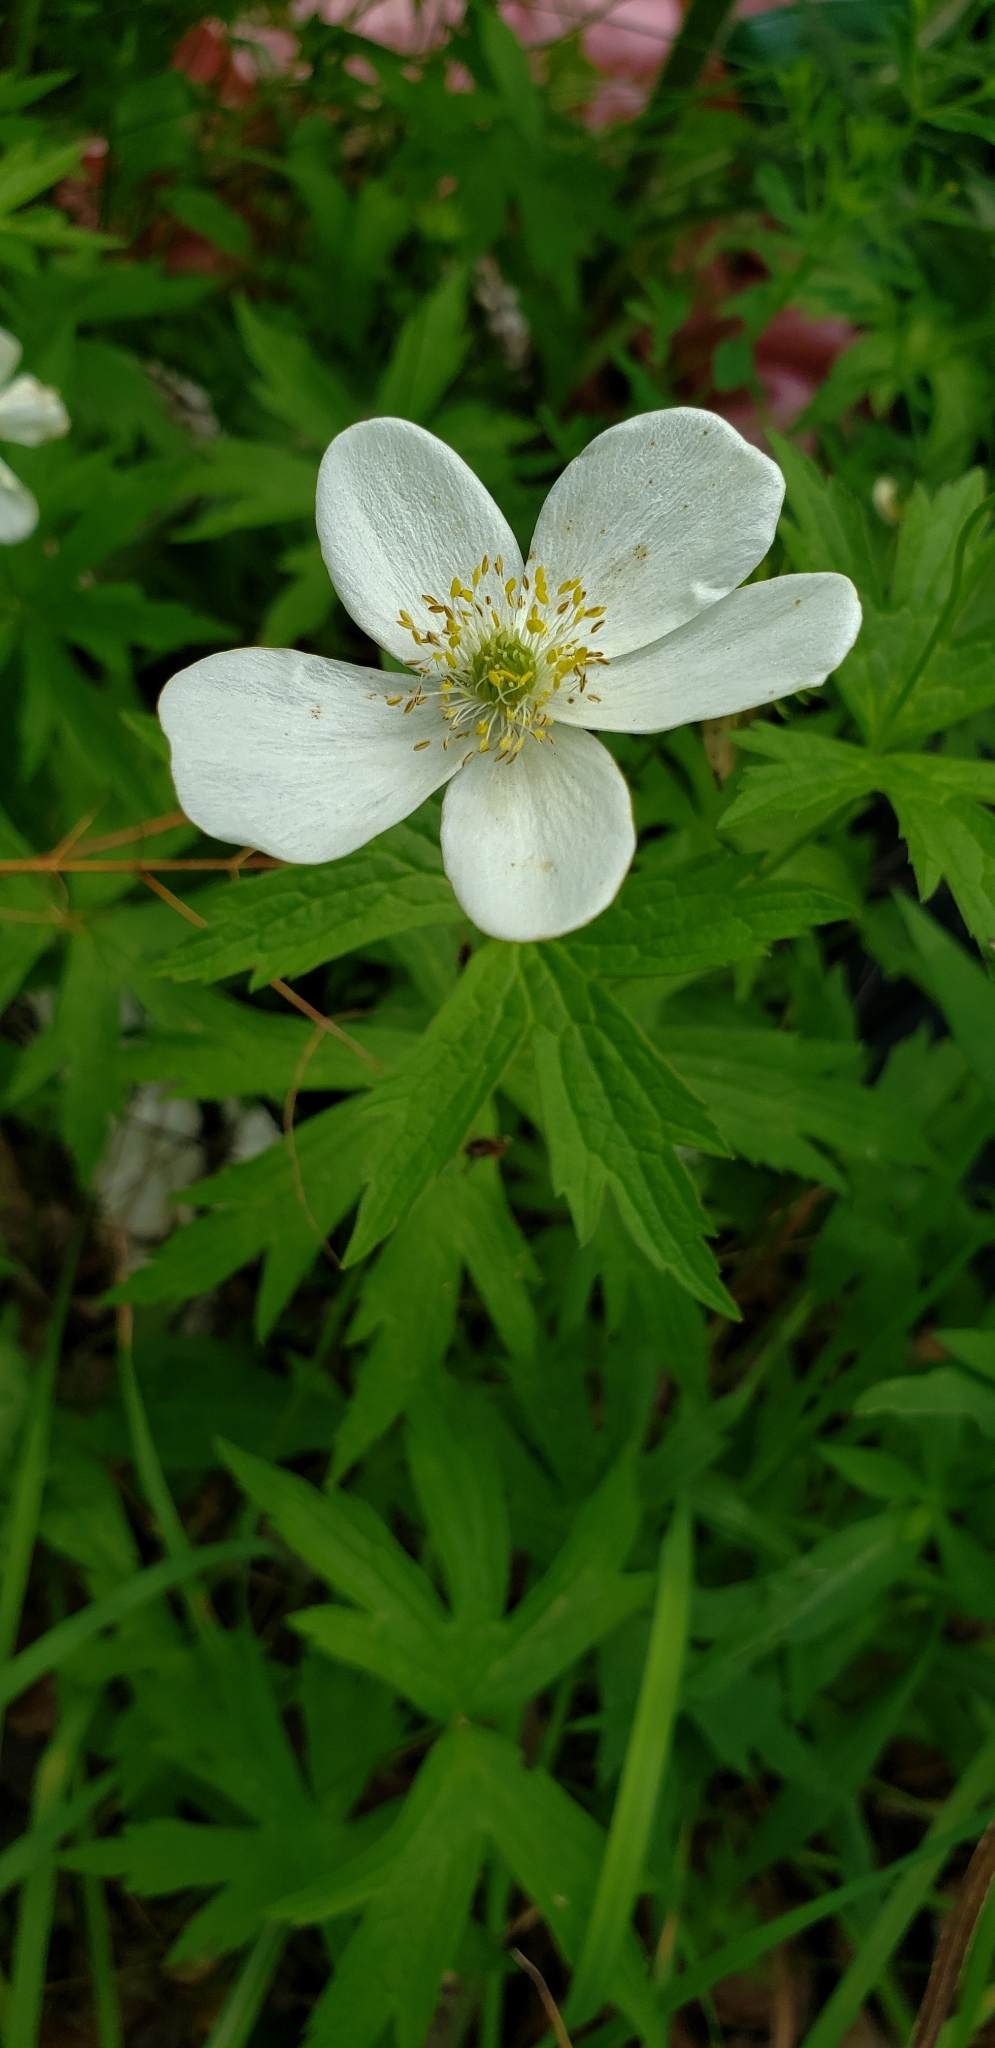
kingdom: Plantae
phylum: Tracheophyta
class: Magnoliopsida
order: Ranunculales
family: Ranunculaceae
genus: Anemonastrum
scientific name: Anemonastrum canadense
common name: Canada anemone
